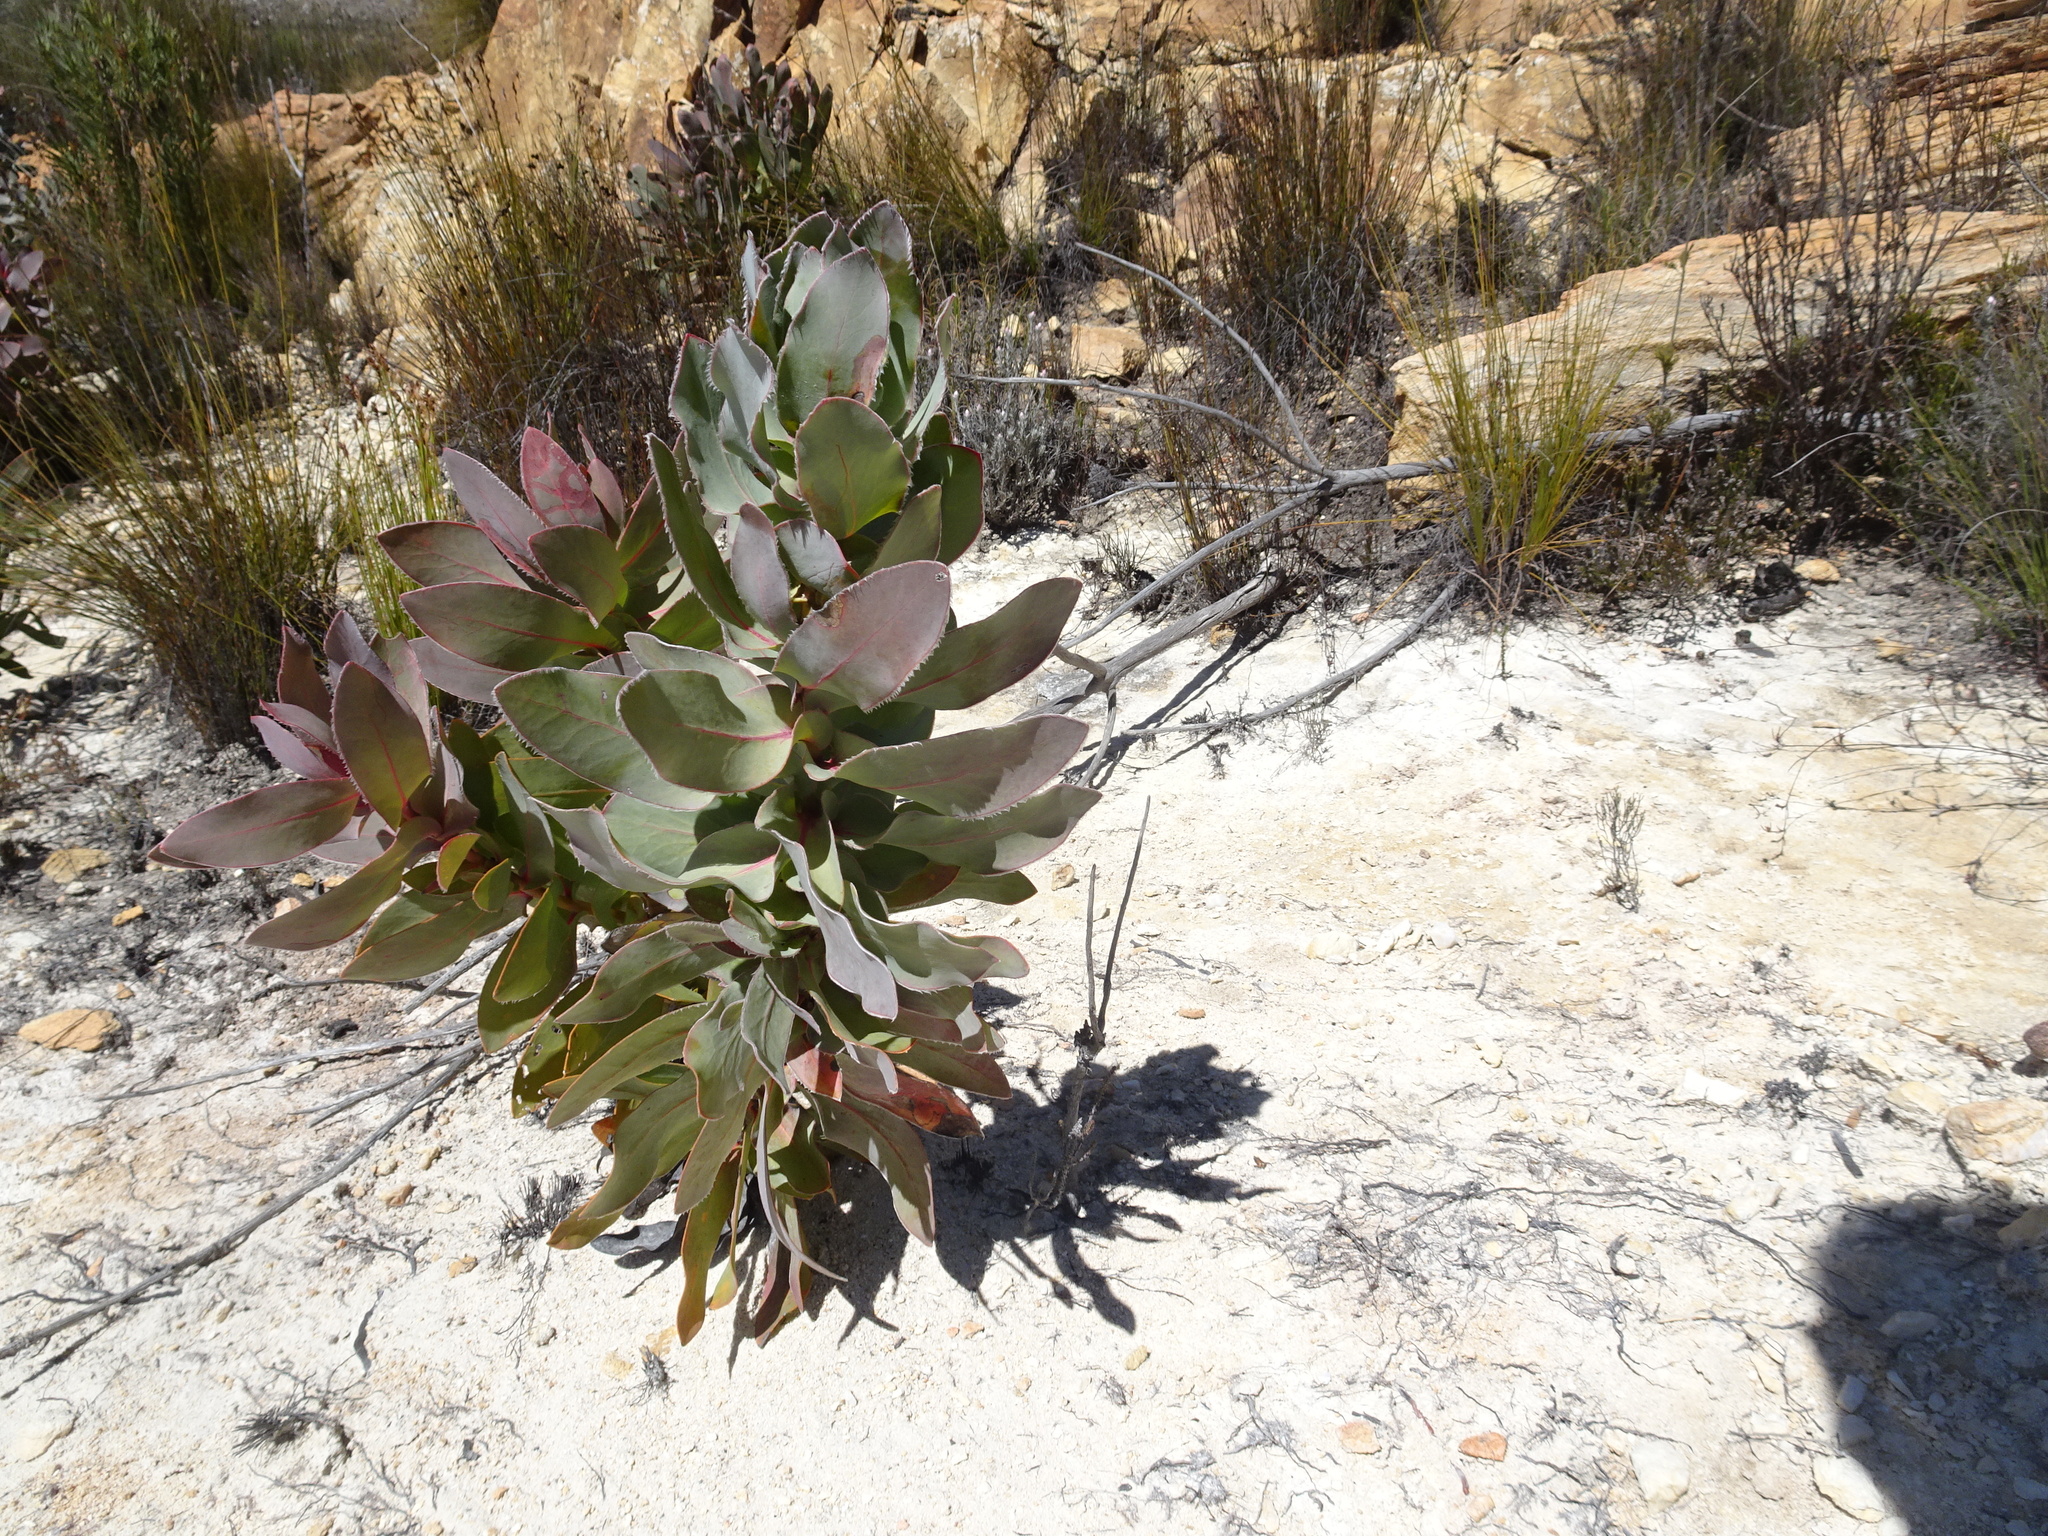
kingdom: Plantae
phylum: Tracheophyta
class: Magnoliopsida
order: Proteales
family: Proteaceae
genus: Protea
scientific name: Protea eximia
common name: Broad-leaved sugarbush
